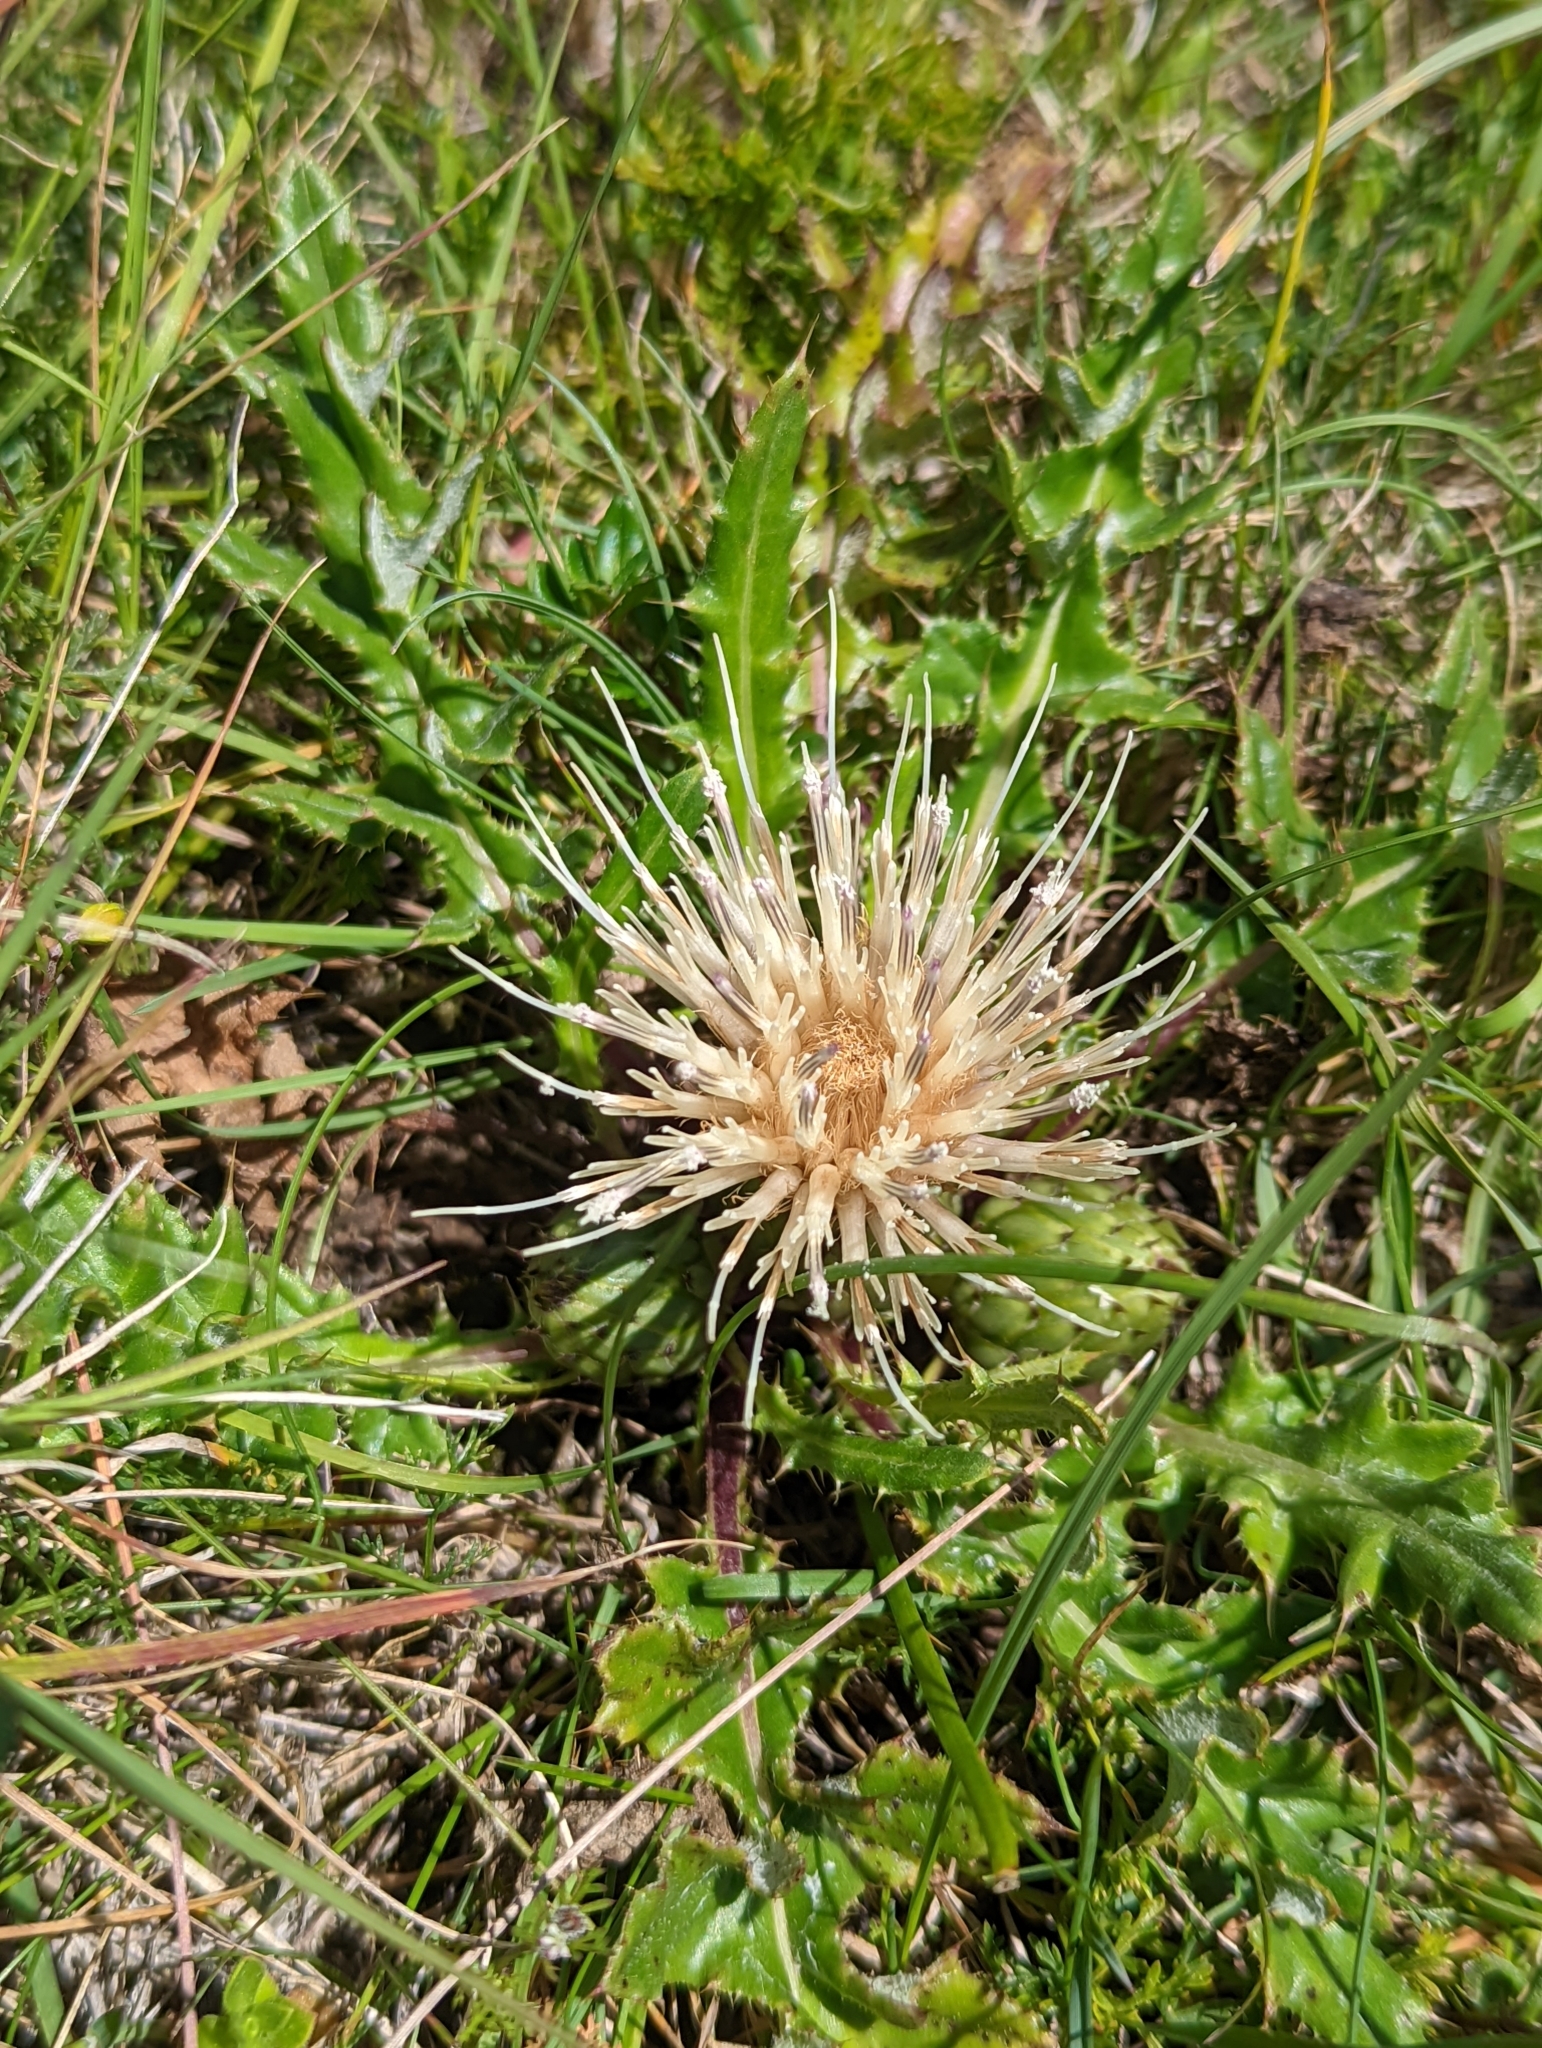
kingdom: Plantae
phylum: Tracheophyta
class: Magnoliopsida
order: Asterales
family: Asteraceae
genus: Cirsium
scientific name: Cirsium quercetorum
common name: Alameda county thistle
